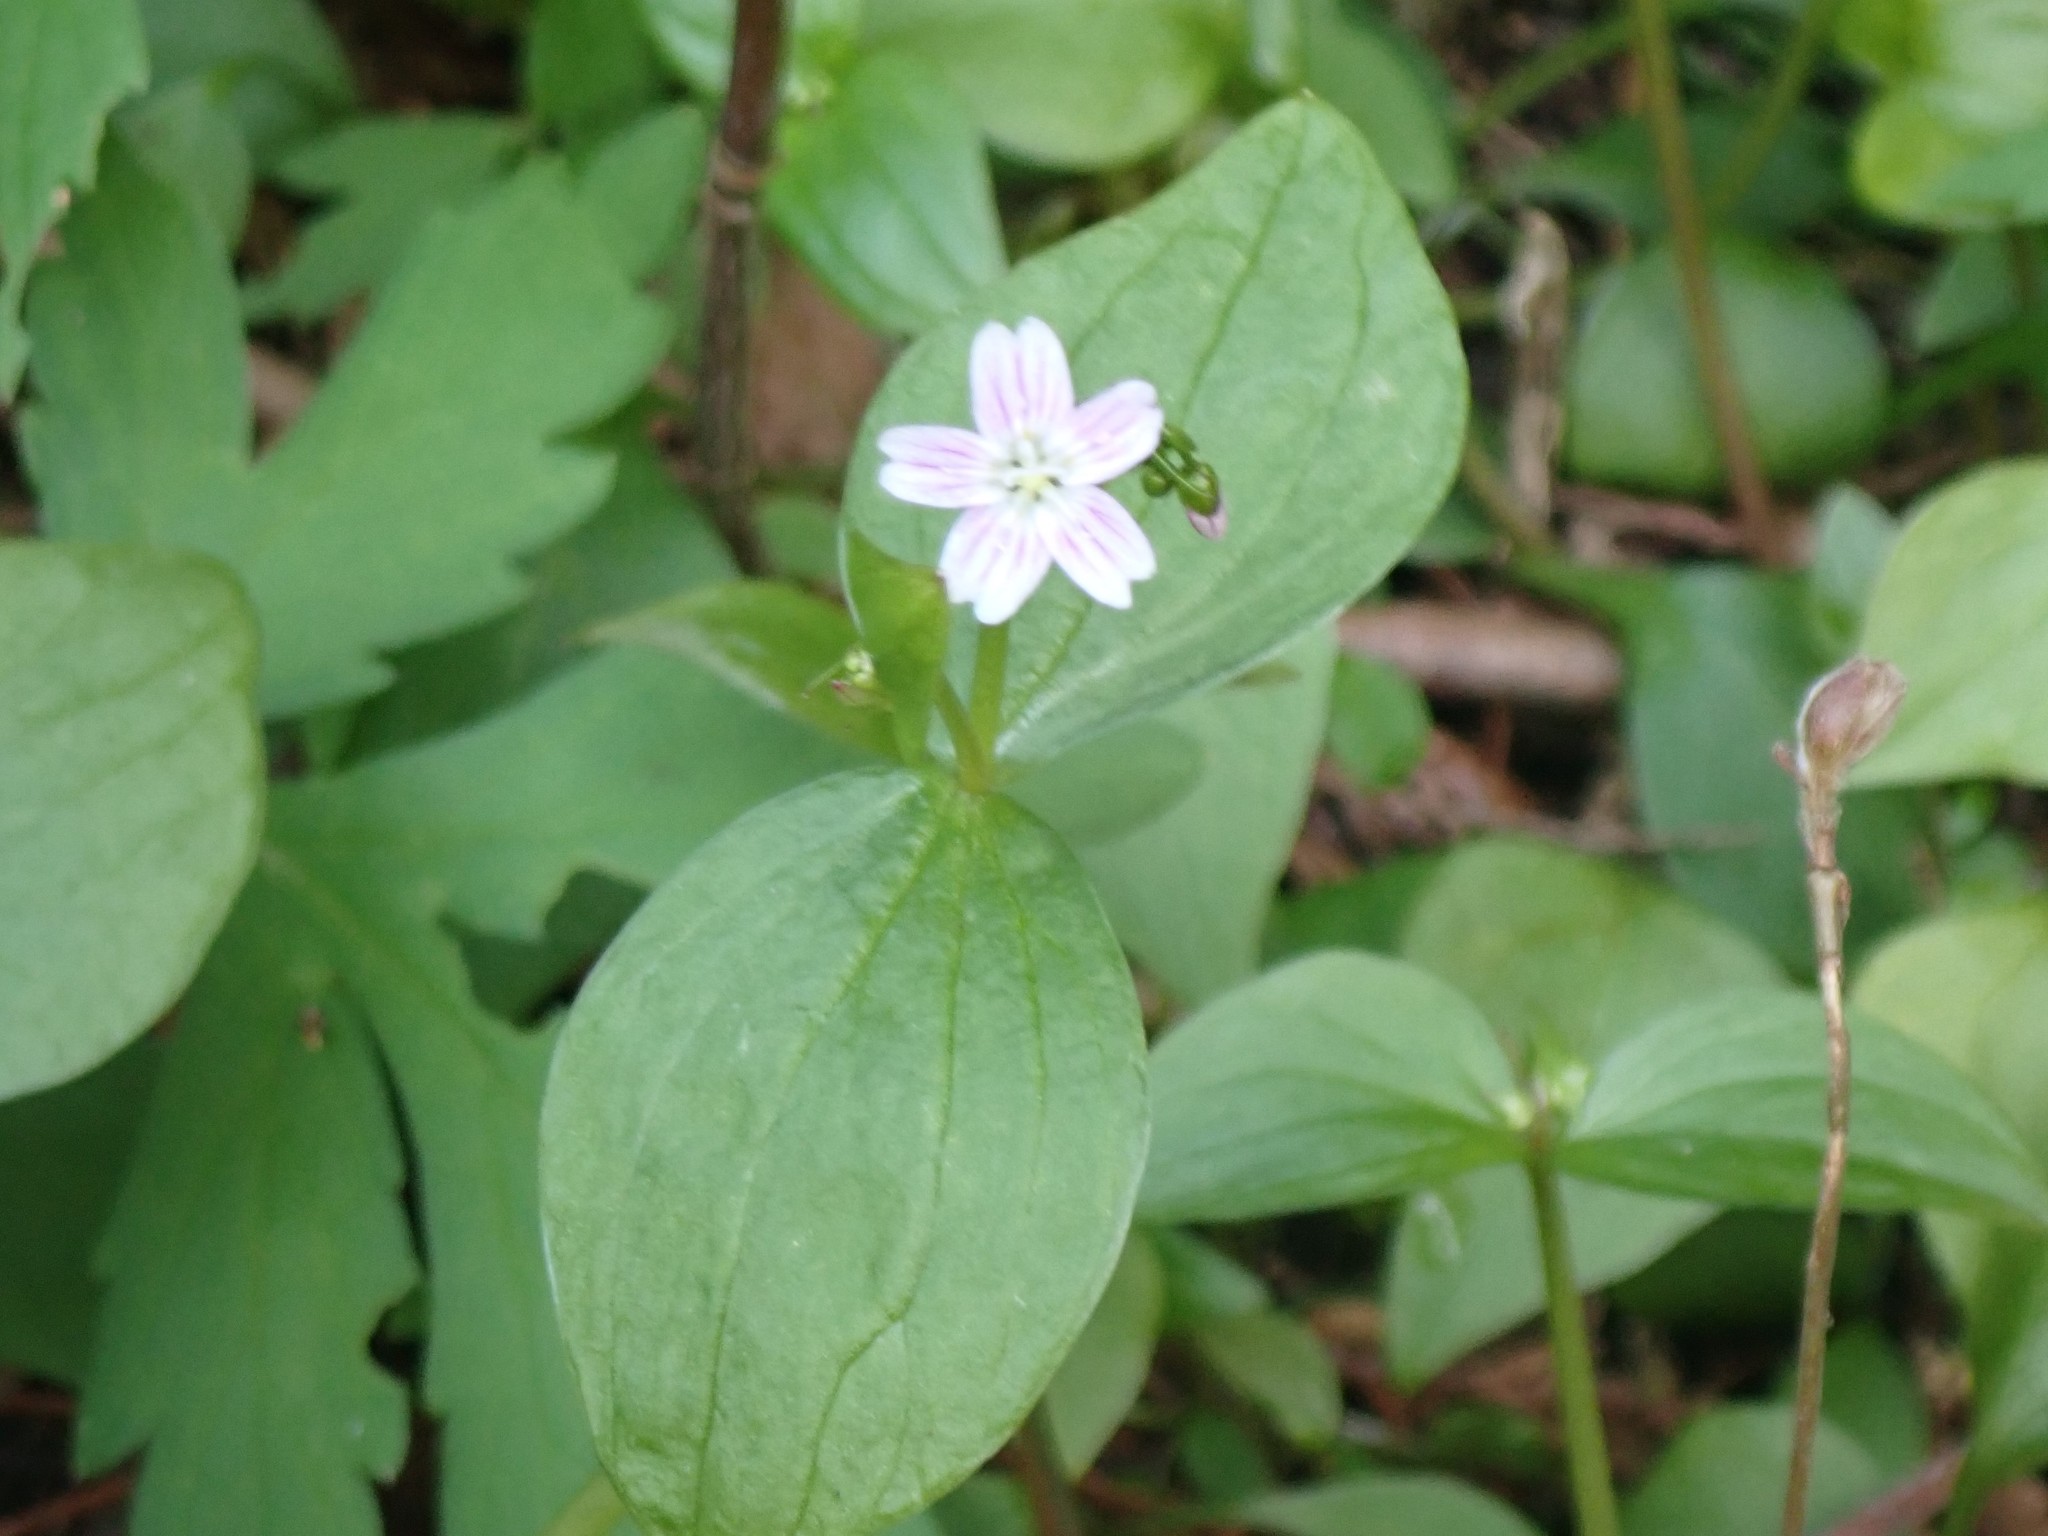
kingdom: Plantae
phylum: Tracheophyta
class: Magnoliopsida
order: Caryophyllales
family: Montiaceae
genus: Claytonia
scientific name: Claytonia sibirica
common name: Pink purslane
